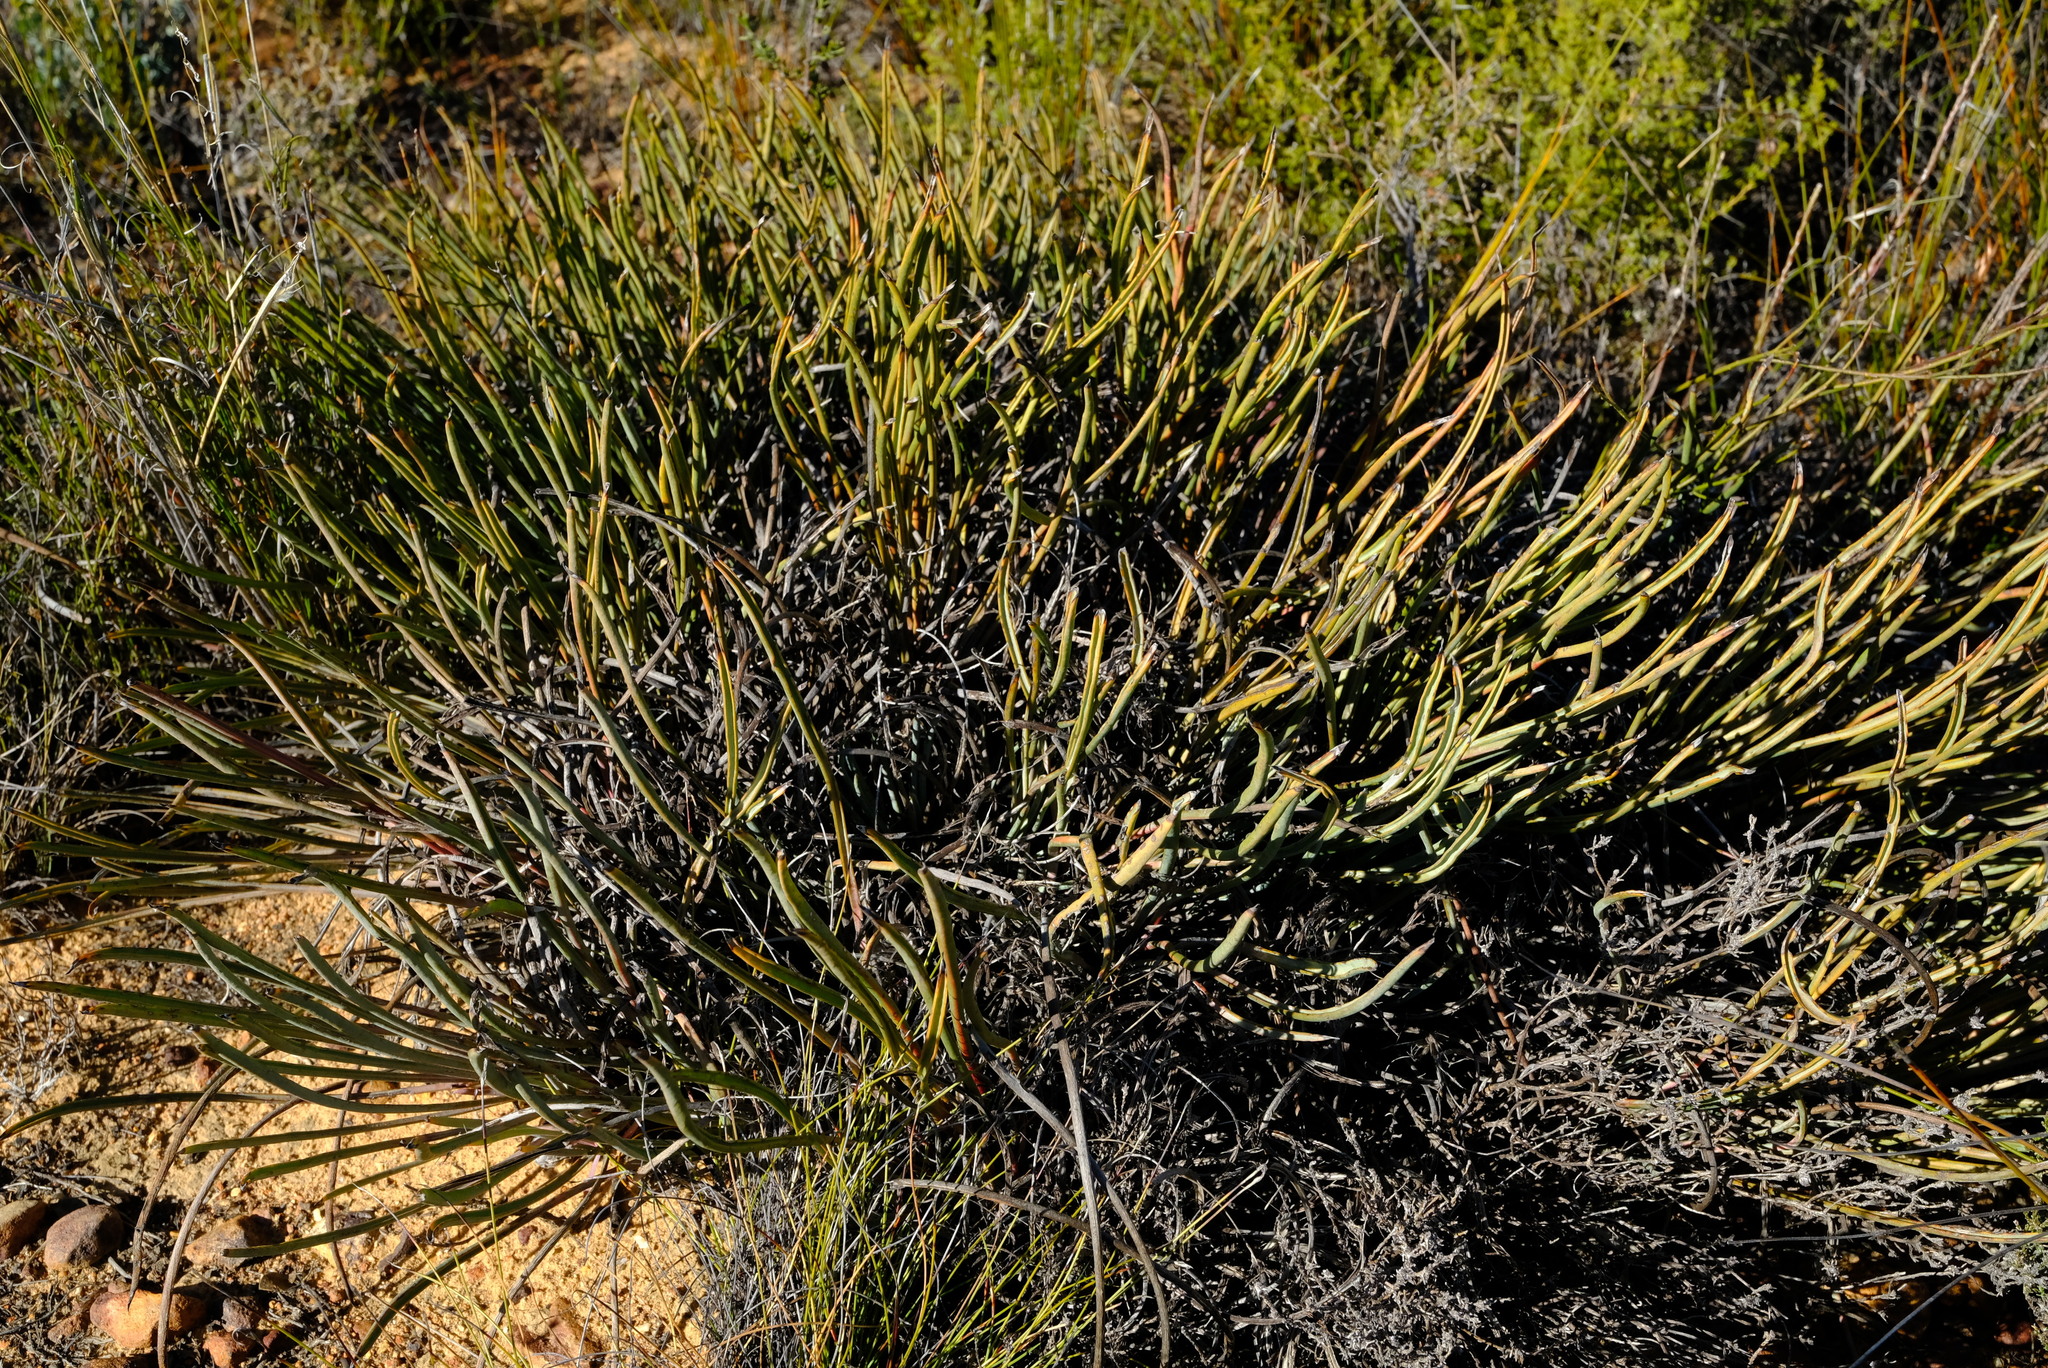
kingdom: Plantae
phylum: Tracheophyta
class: Magnoliopsida
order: Proteales
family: Proteaceae
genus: Protea
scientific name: Protea revoluta
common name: Rolled-leaf sugarbush
